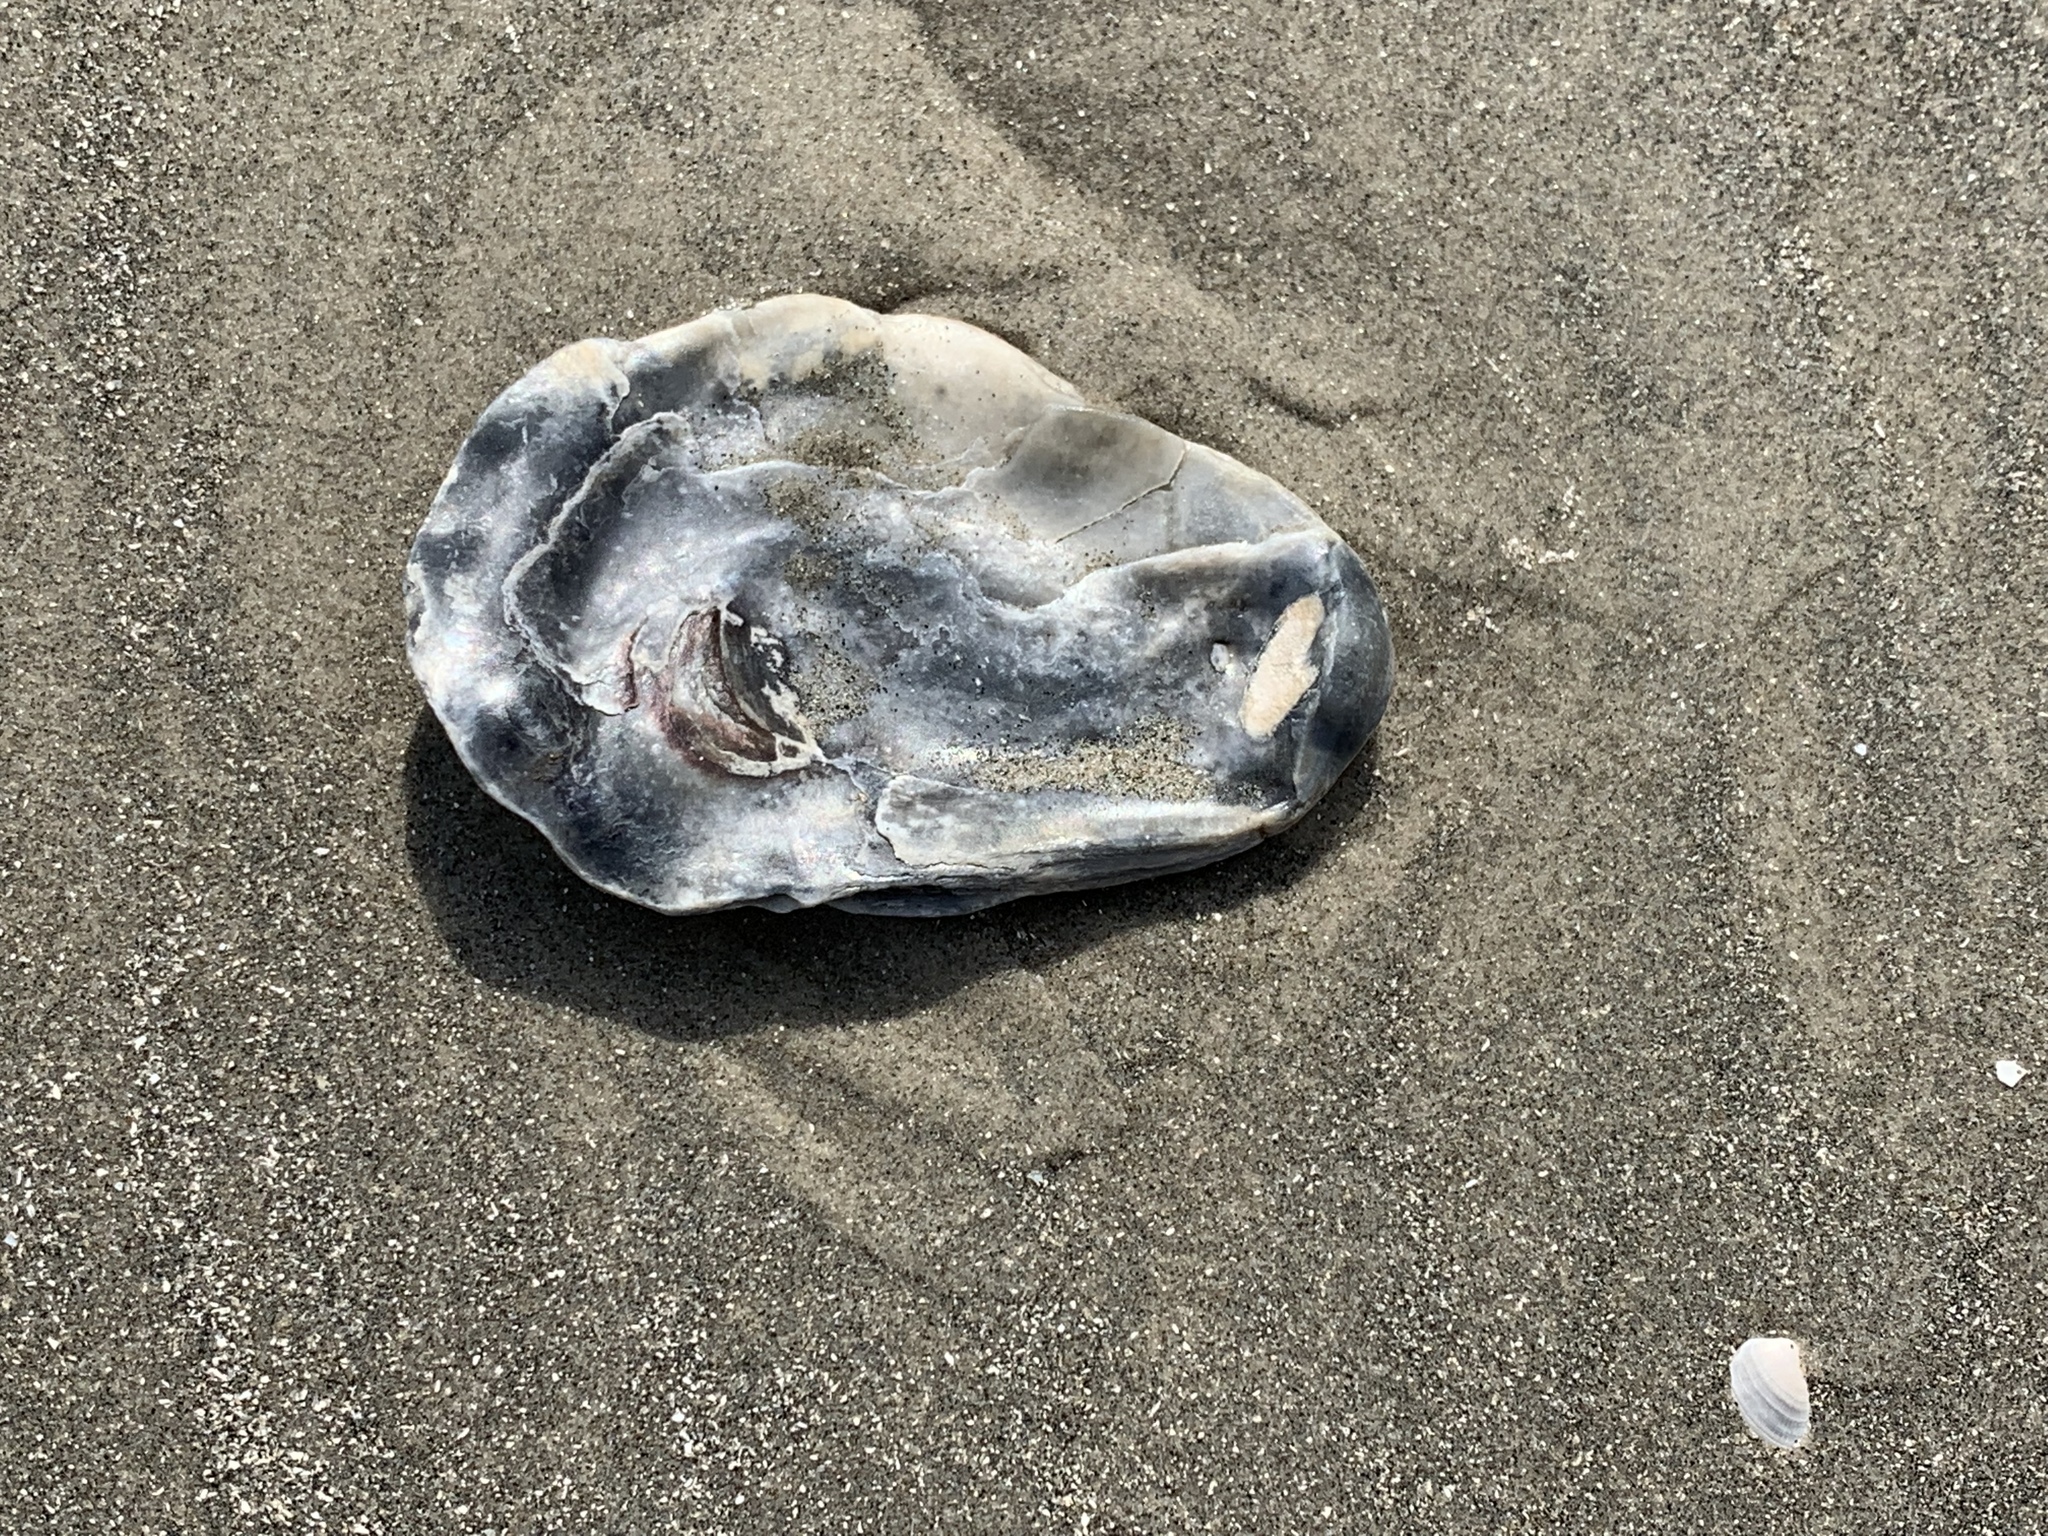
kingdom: Animalia
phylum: Mollusca
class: Bivalvia
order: Ostreida
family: Ostreidae
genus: Crassostrea
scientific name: Crassostrea virginica
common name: American oyster
